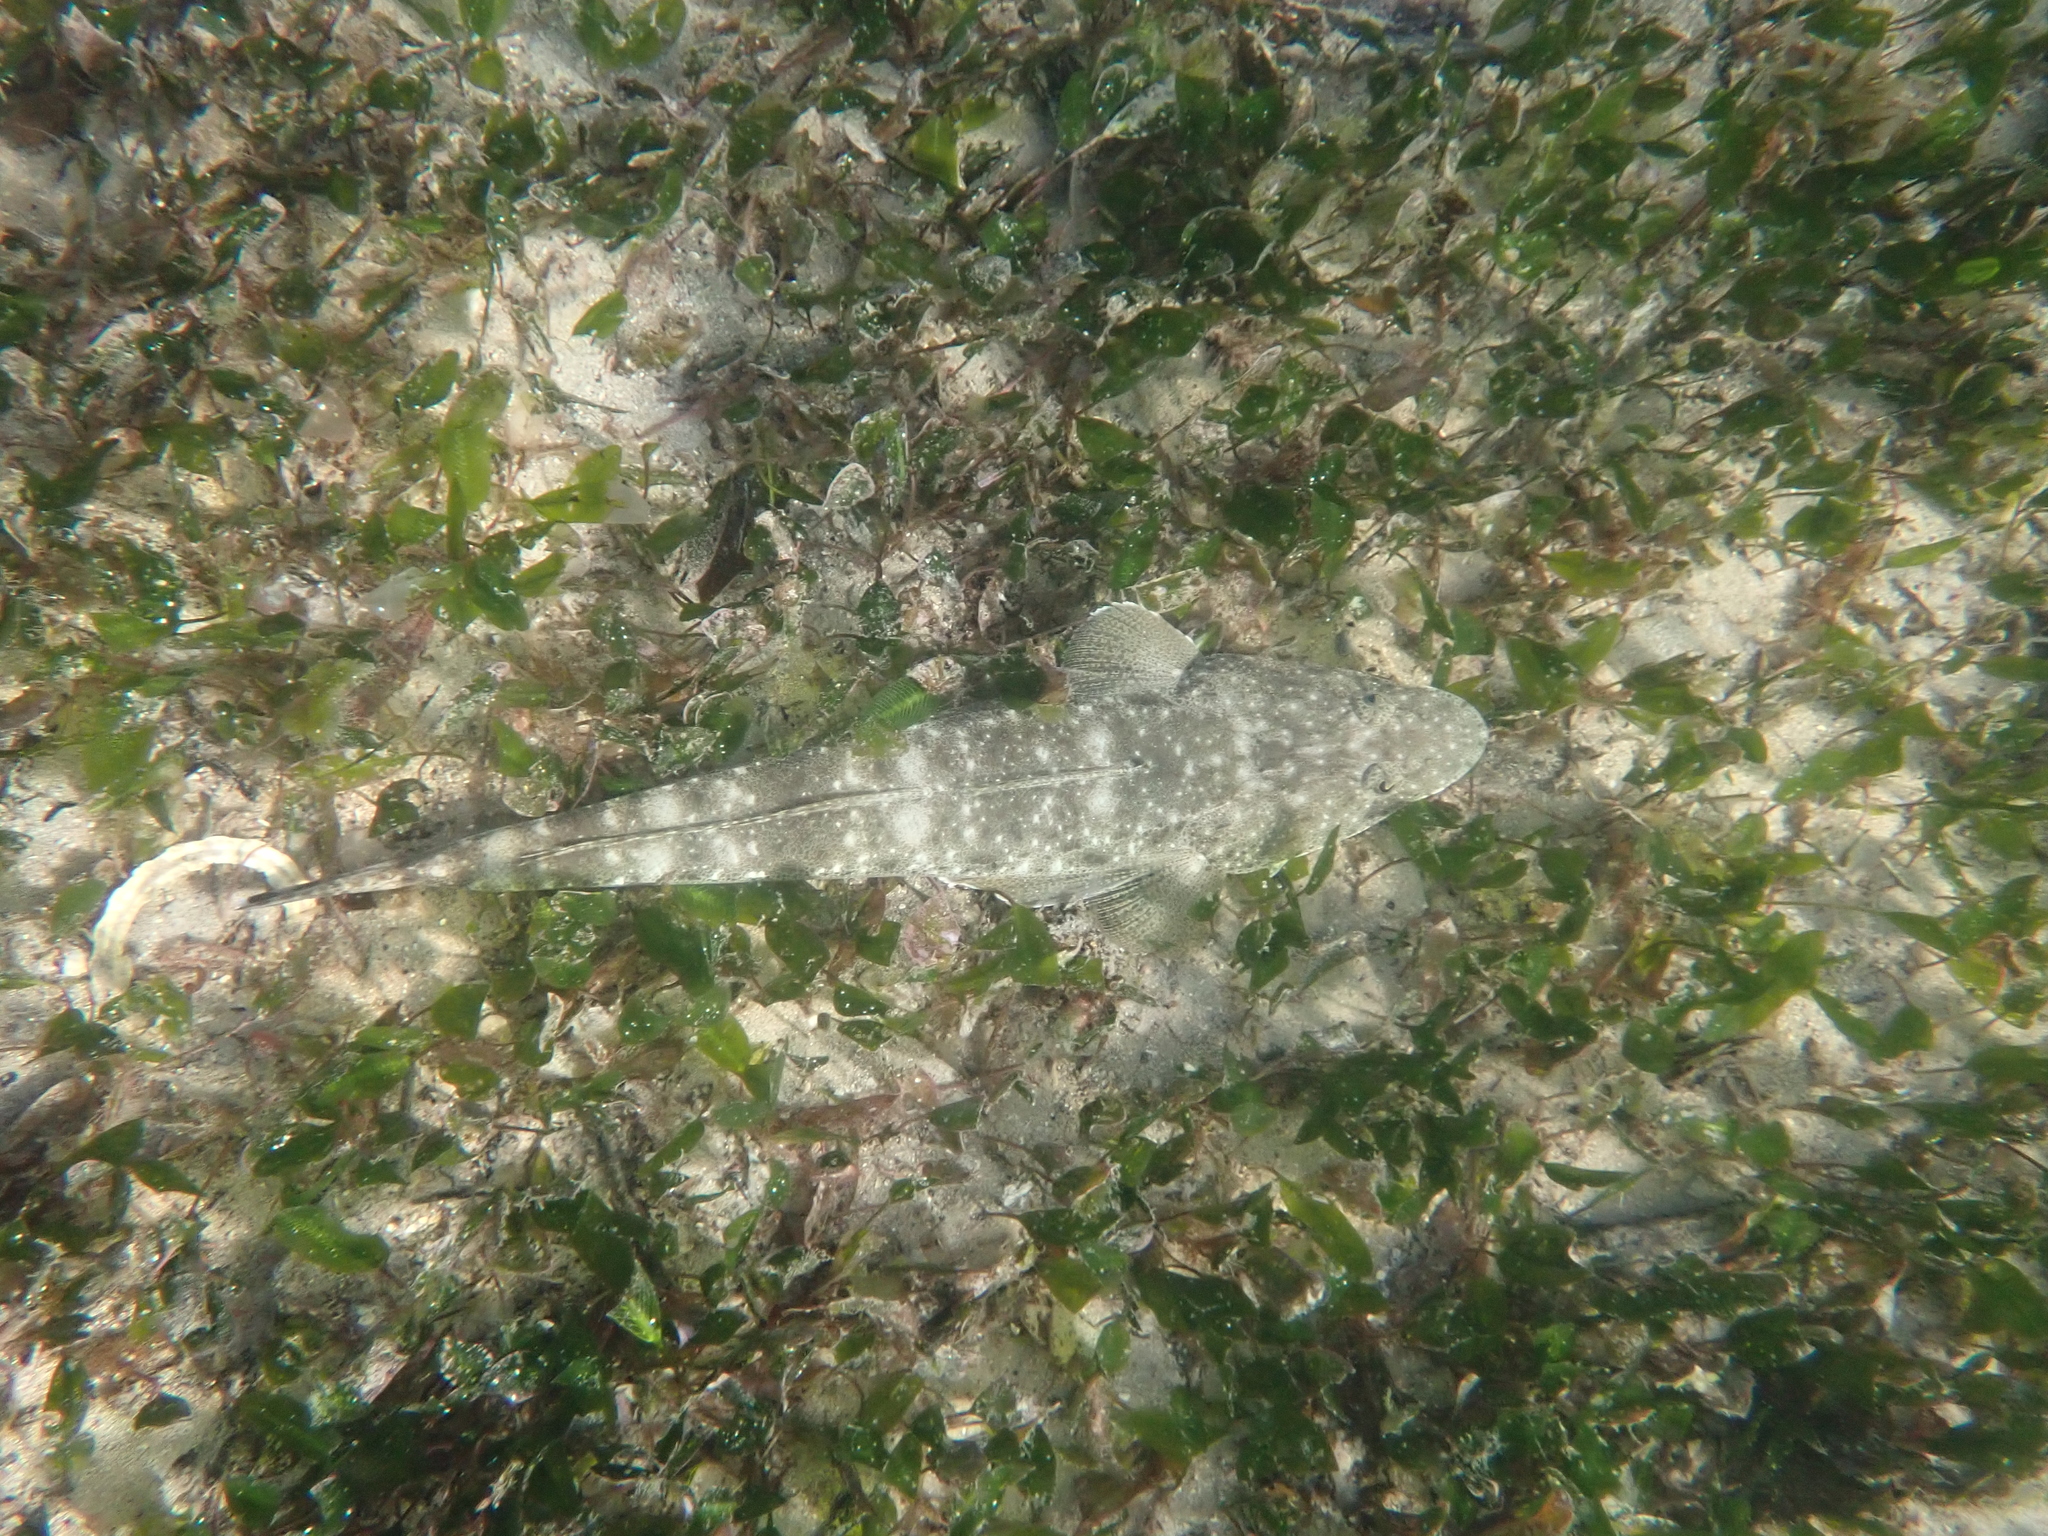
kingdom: Animalia
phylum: Chordata
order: Scorpaeniformes
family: Platycephalidae
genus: Platycephalus
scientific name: Platycephalus fuscus
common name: Dusky flathead
